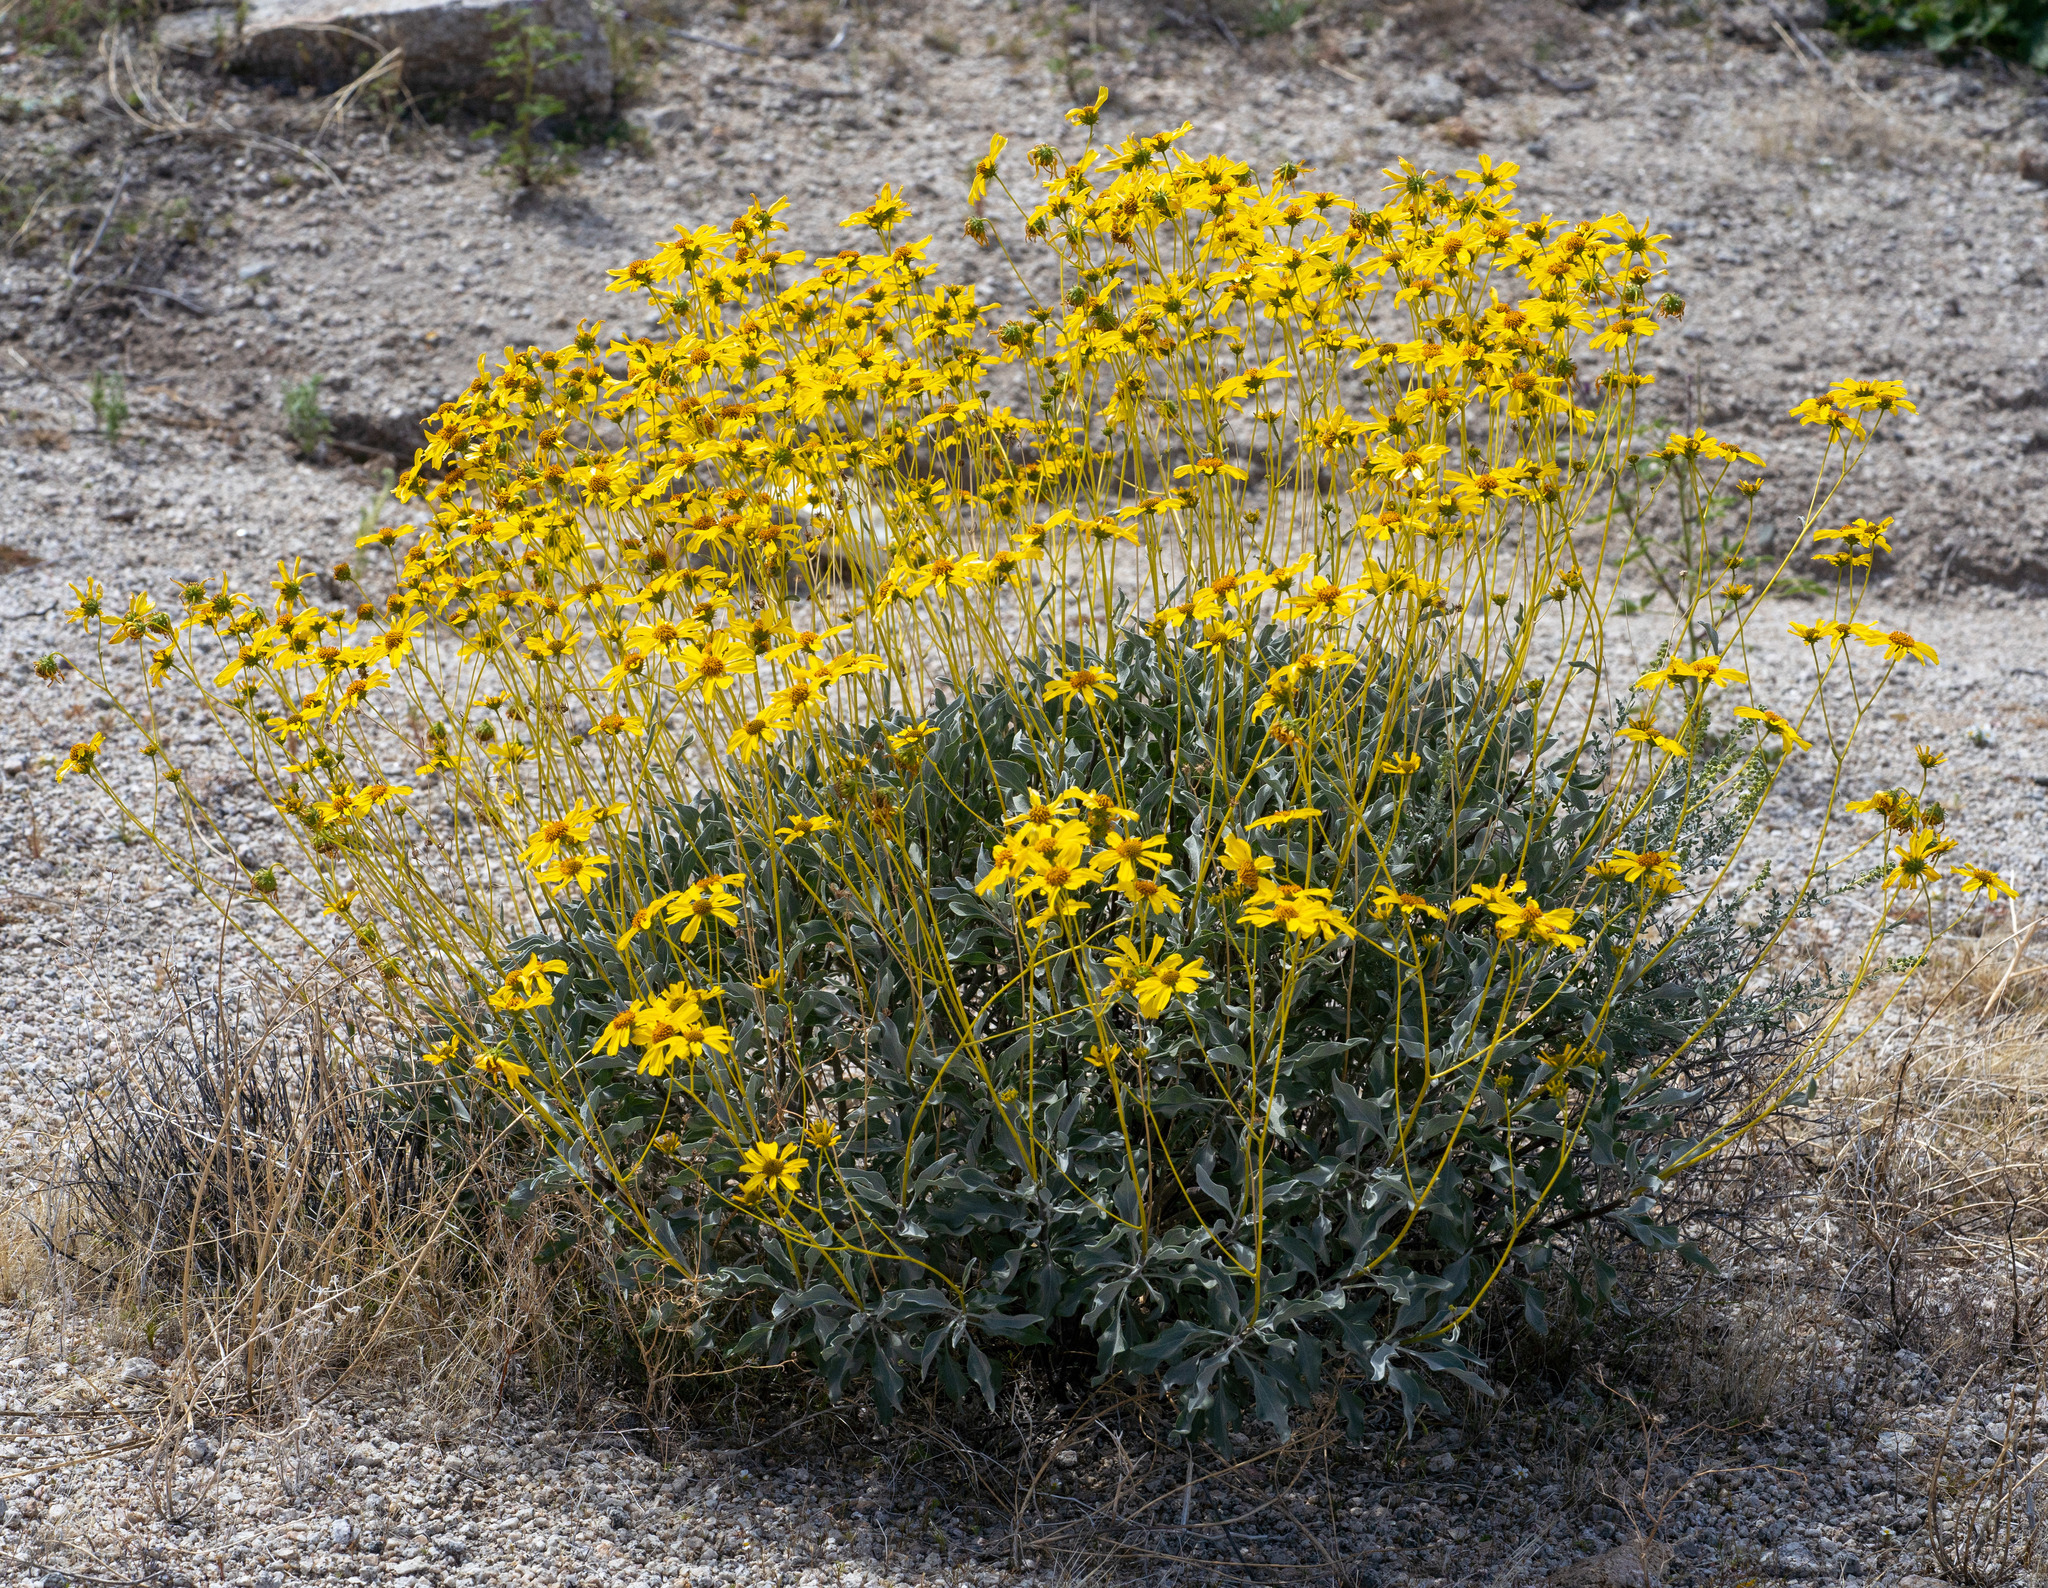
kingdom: Plantae
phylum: Tracheophyta
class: Magnoliopsida
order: Asterales
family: Asteraceae
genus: Encelia
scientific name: Encelia farinosa
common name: Brittlebush
